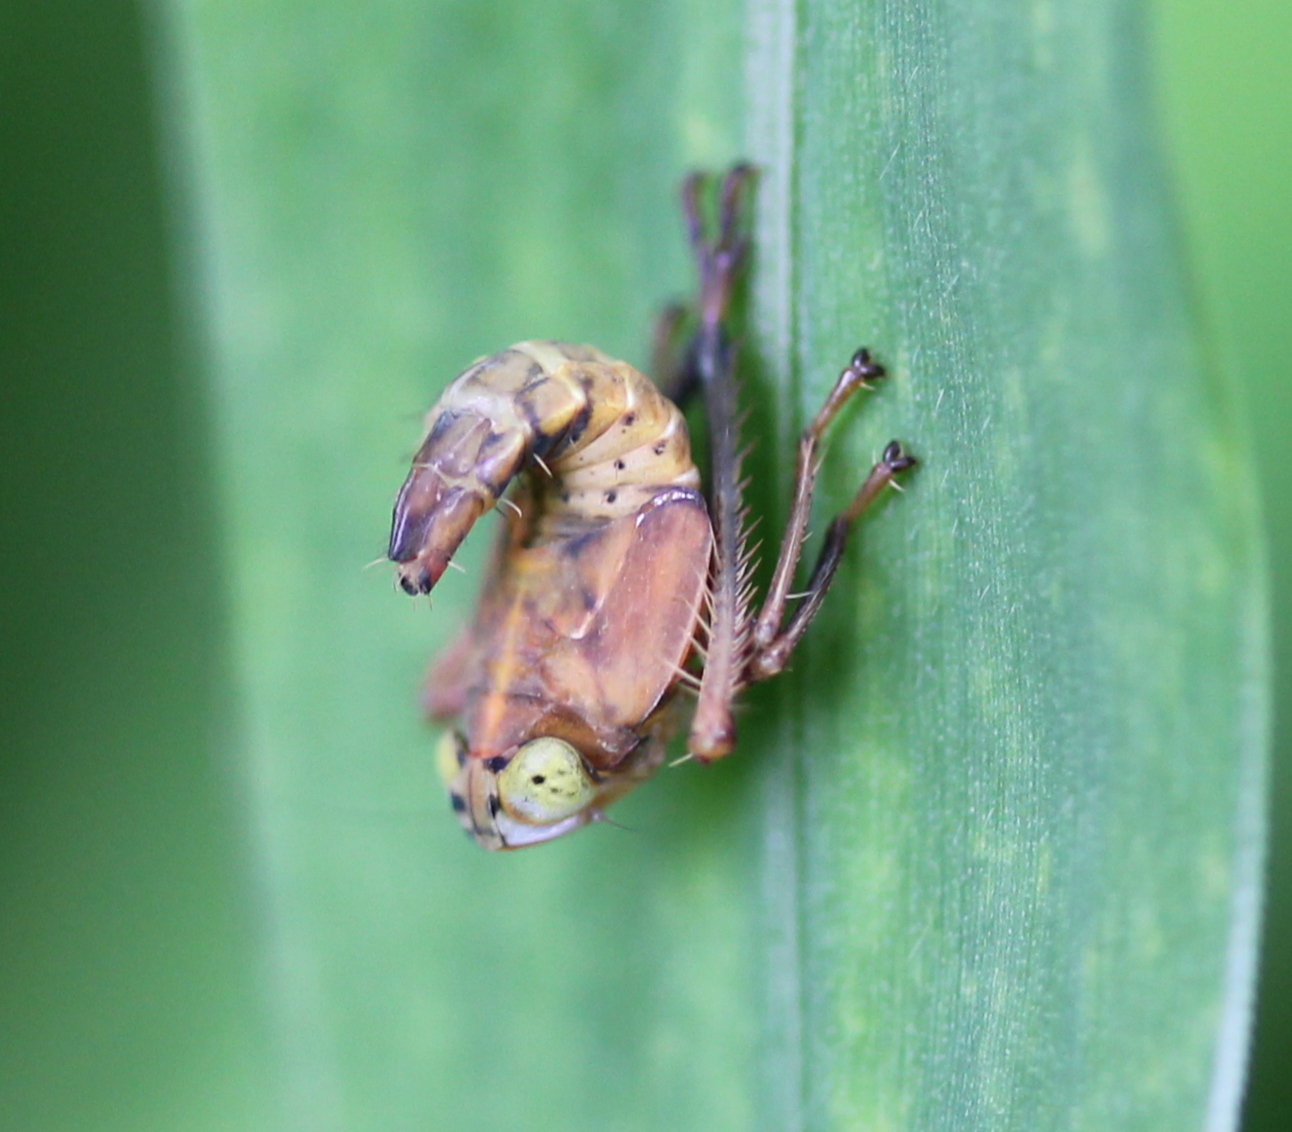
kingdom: Animalia
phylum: Arthropoda
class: Insecta
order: Hemiptera
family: Cicadellidae
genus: Jikradia
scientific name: Jikradia olitoria
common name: Coppery leafhopper
